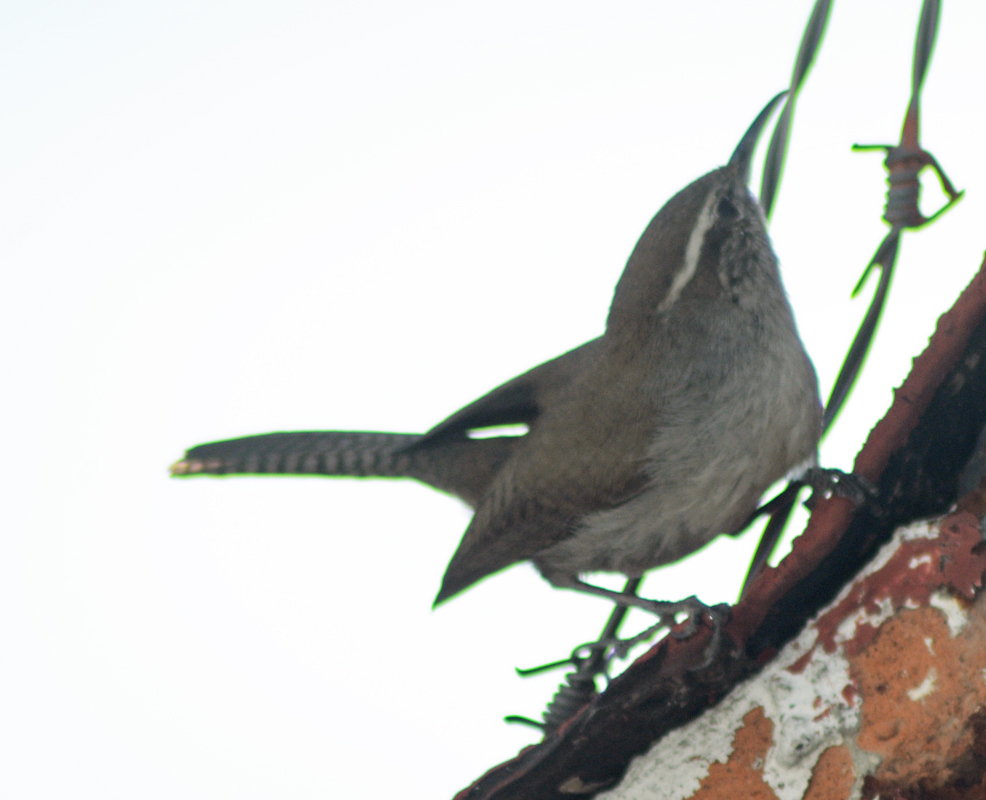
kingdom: Animalia
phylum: Chordata
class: Aves
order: Passeriformes
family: Troglodytidae
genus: Thryomanes
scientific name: Thryomanes bewickii
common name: Bewick's wren
